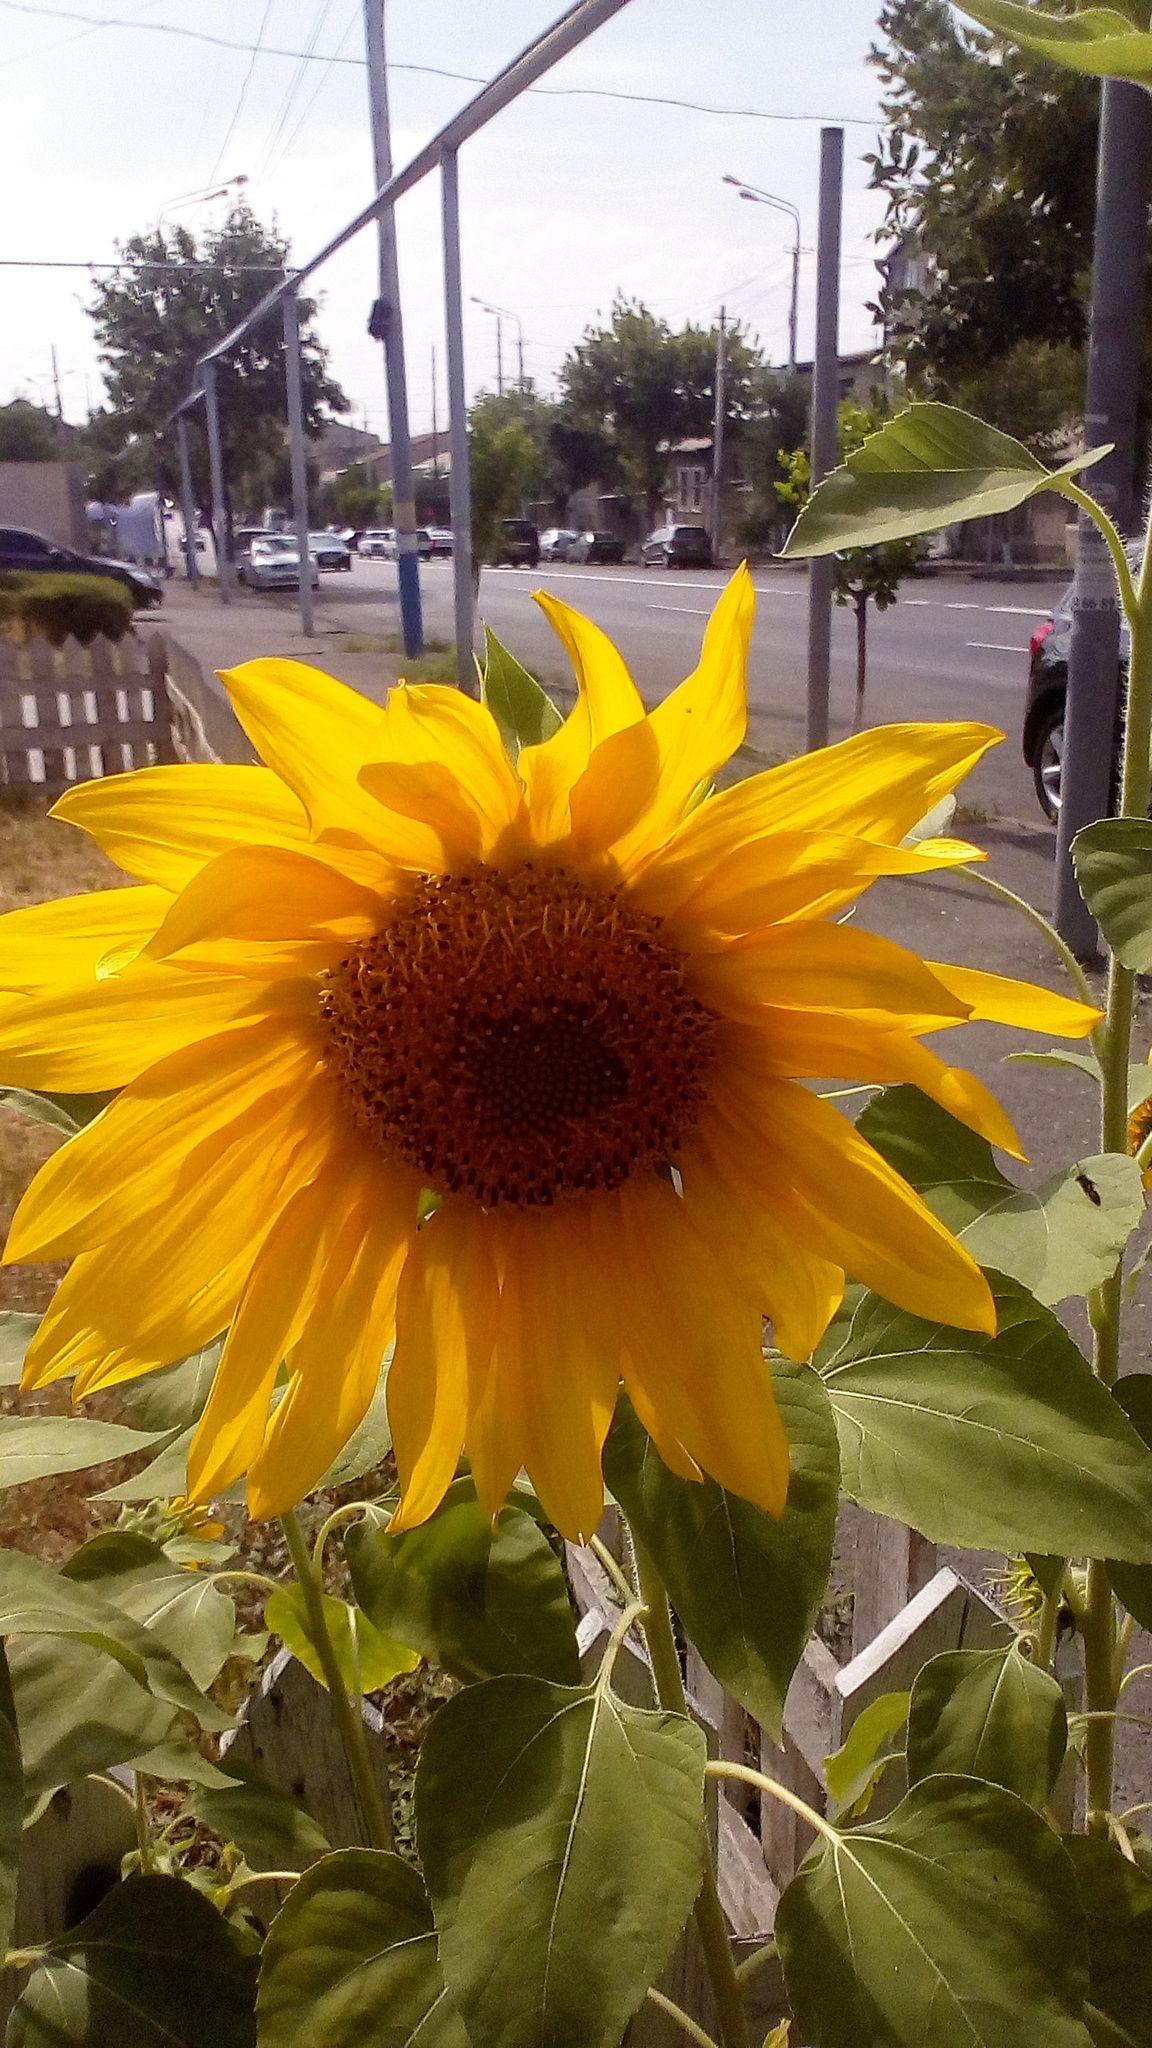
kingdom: Plantae
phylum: Tracheophyta
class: Magnoliopsida
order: Asterales
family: Asteraceae
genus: Helianthus
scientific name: Helianthus annuus
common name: Sunflower
